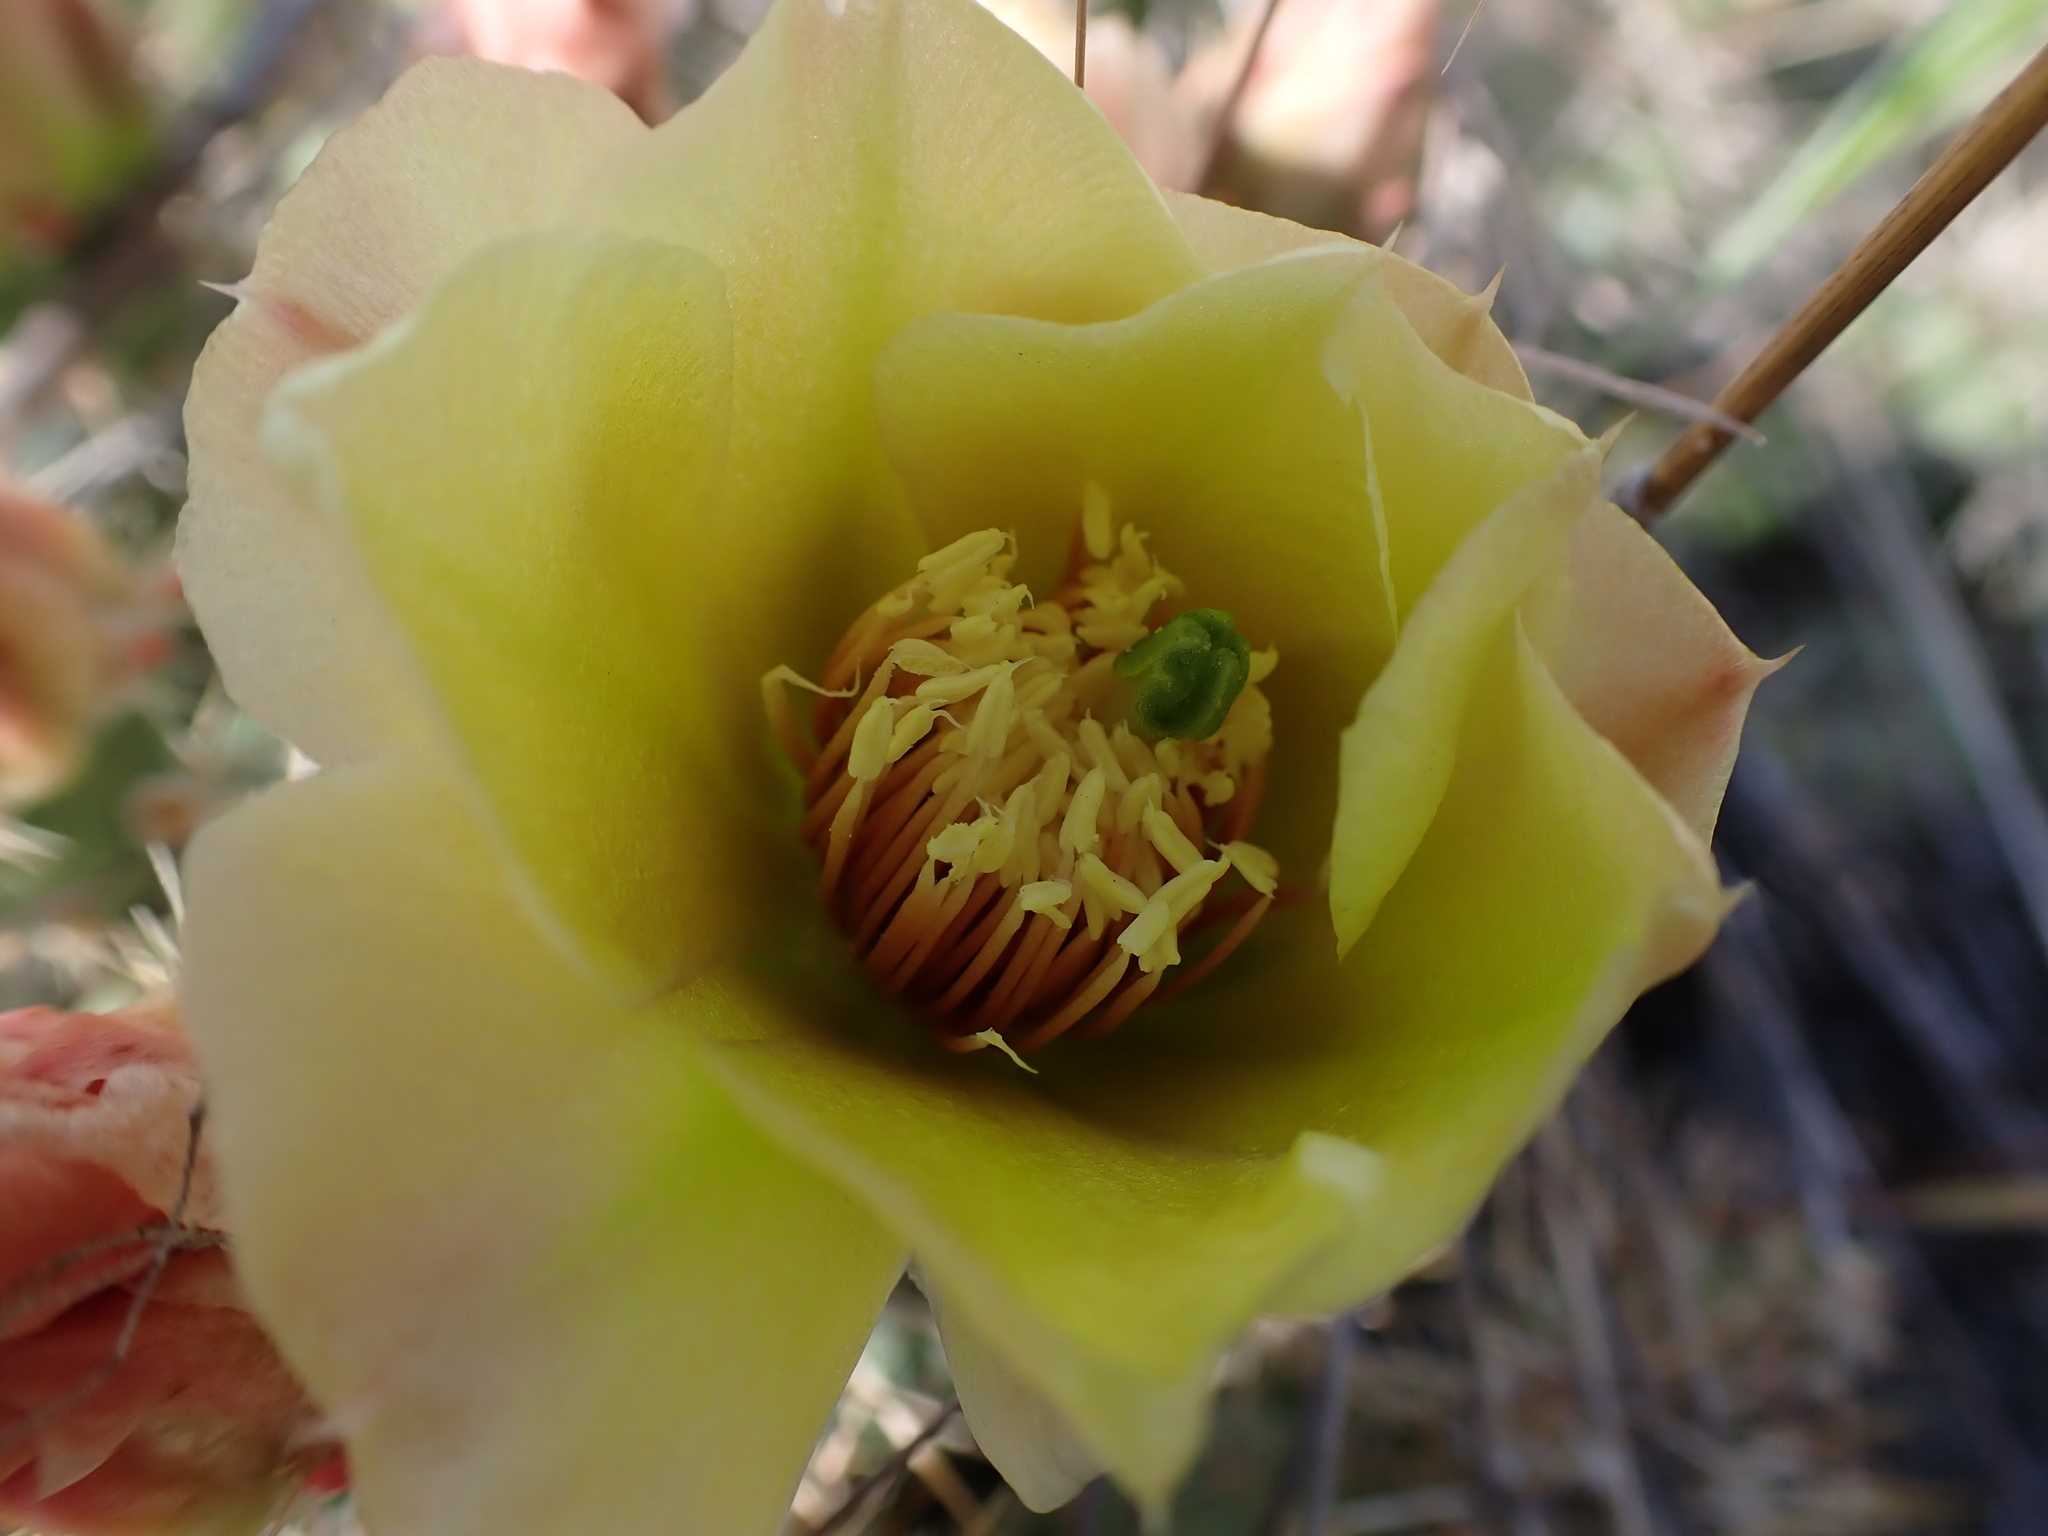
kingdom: Plantae
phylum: Tracheophyta
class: Magnoliopsida
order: Caryophyllales
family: Cactaceae
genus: Opuntia
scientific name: Opuntia fragilis
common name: Brittle cactus
